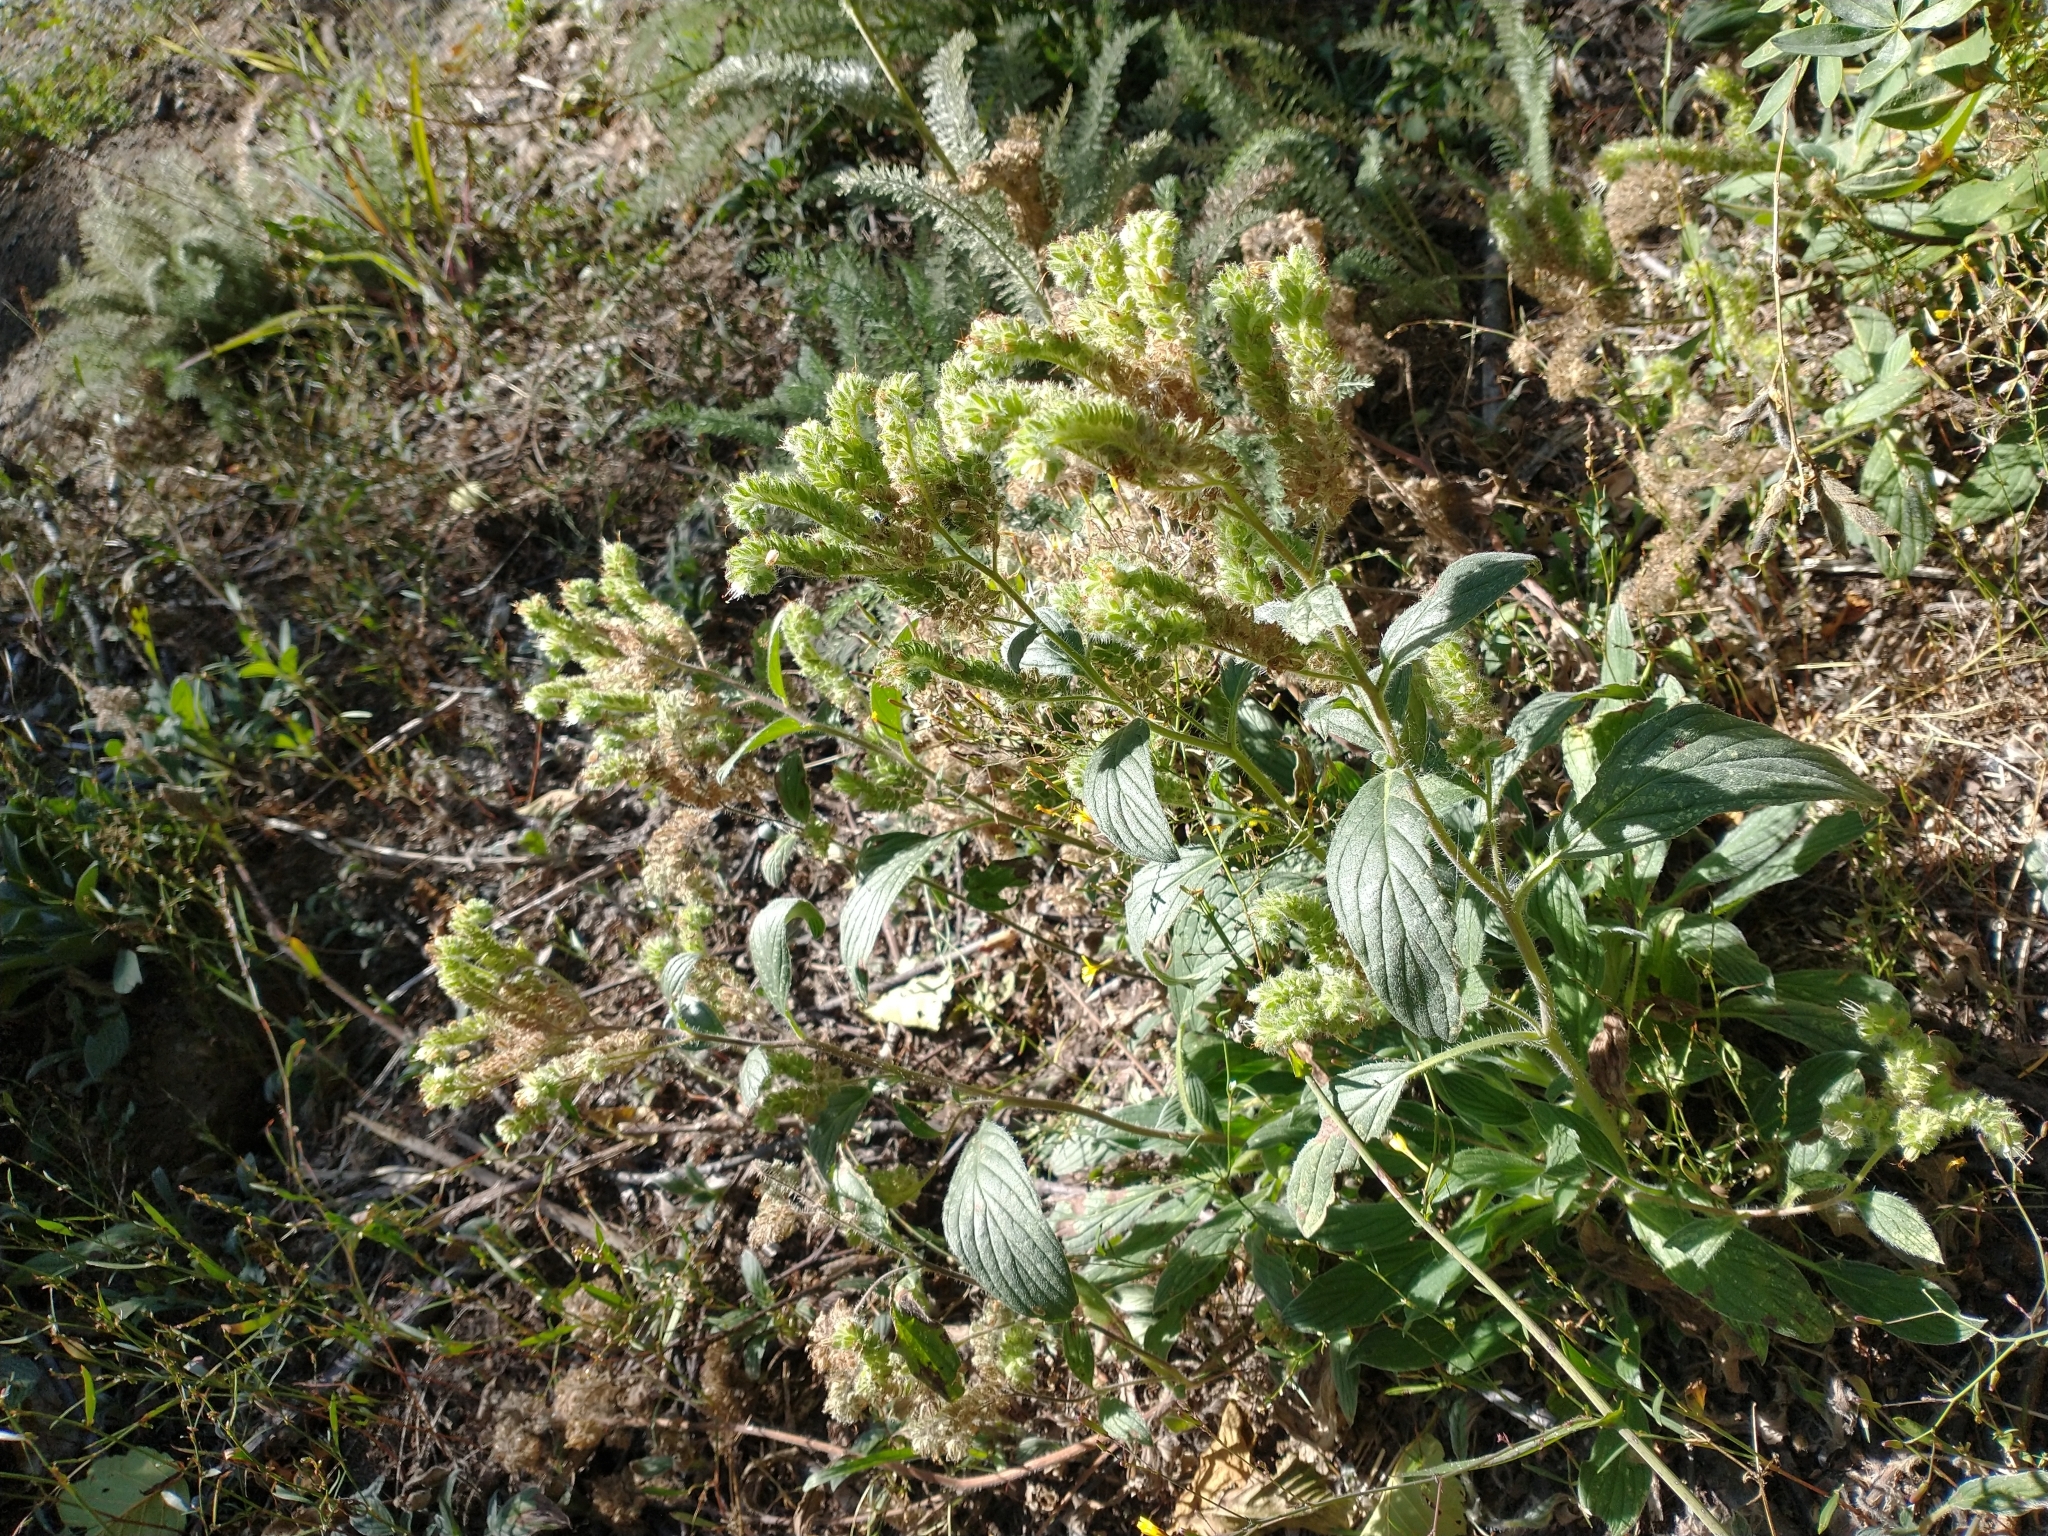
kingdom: Plantae
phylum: Tracheophyta
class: Magnoliopsida
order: Boraginales
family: Hydrophyllaceae
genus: Phacelia
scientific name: Phacelia nemoralis
